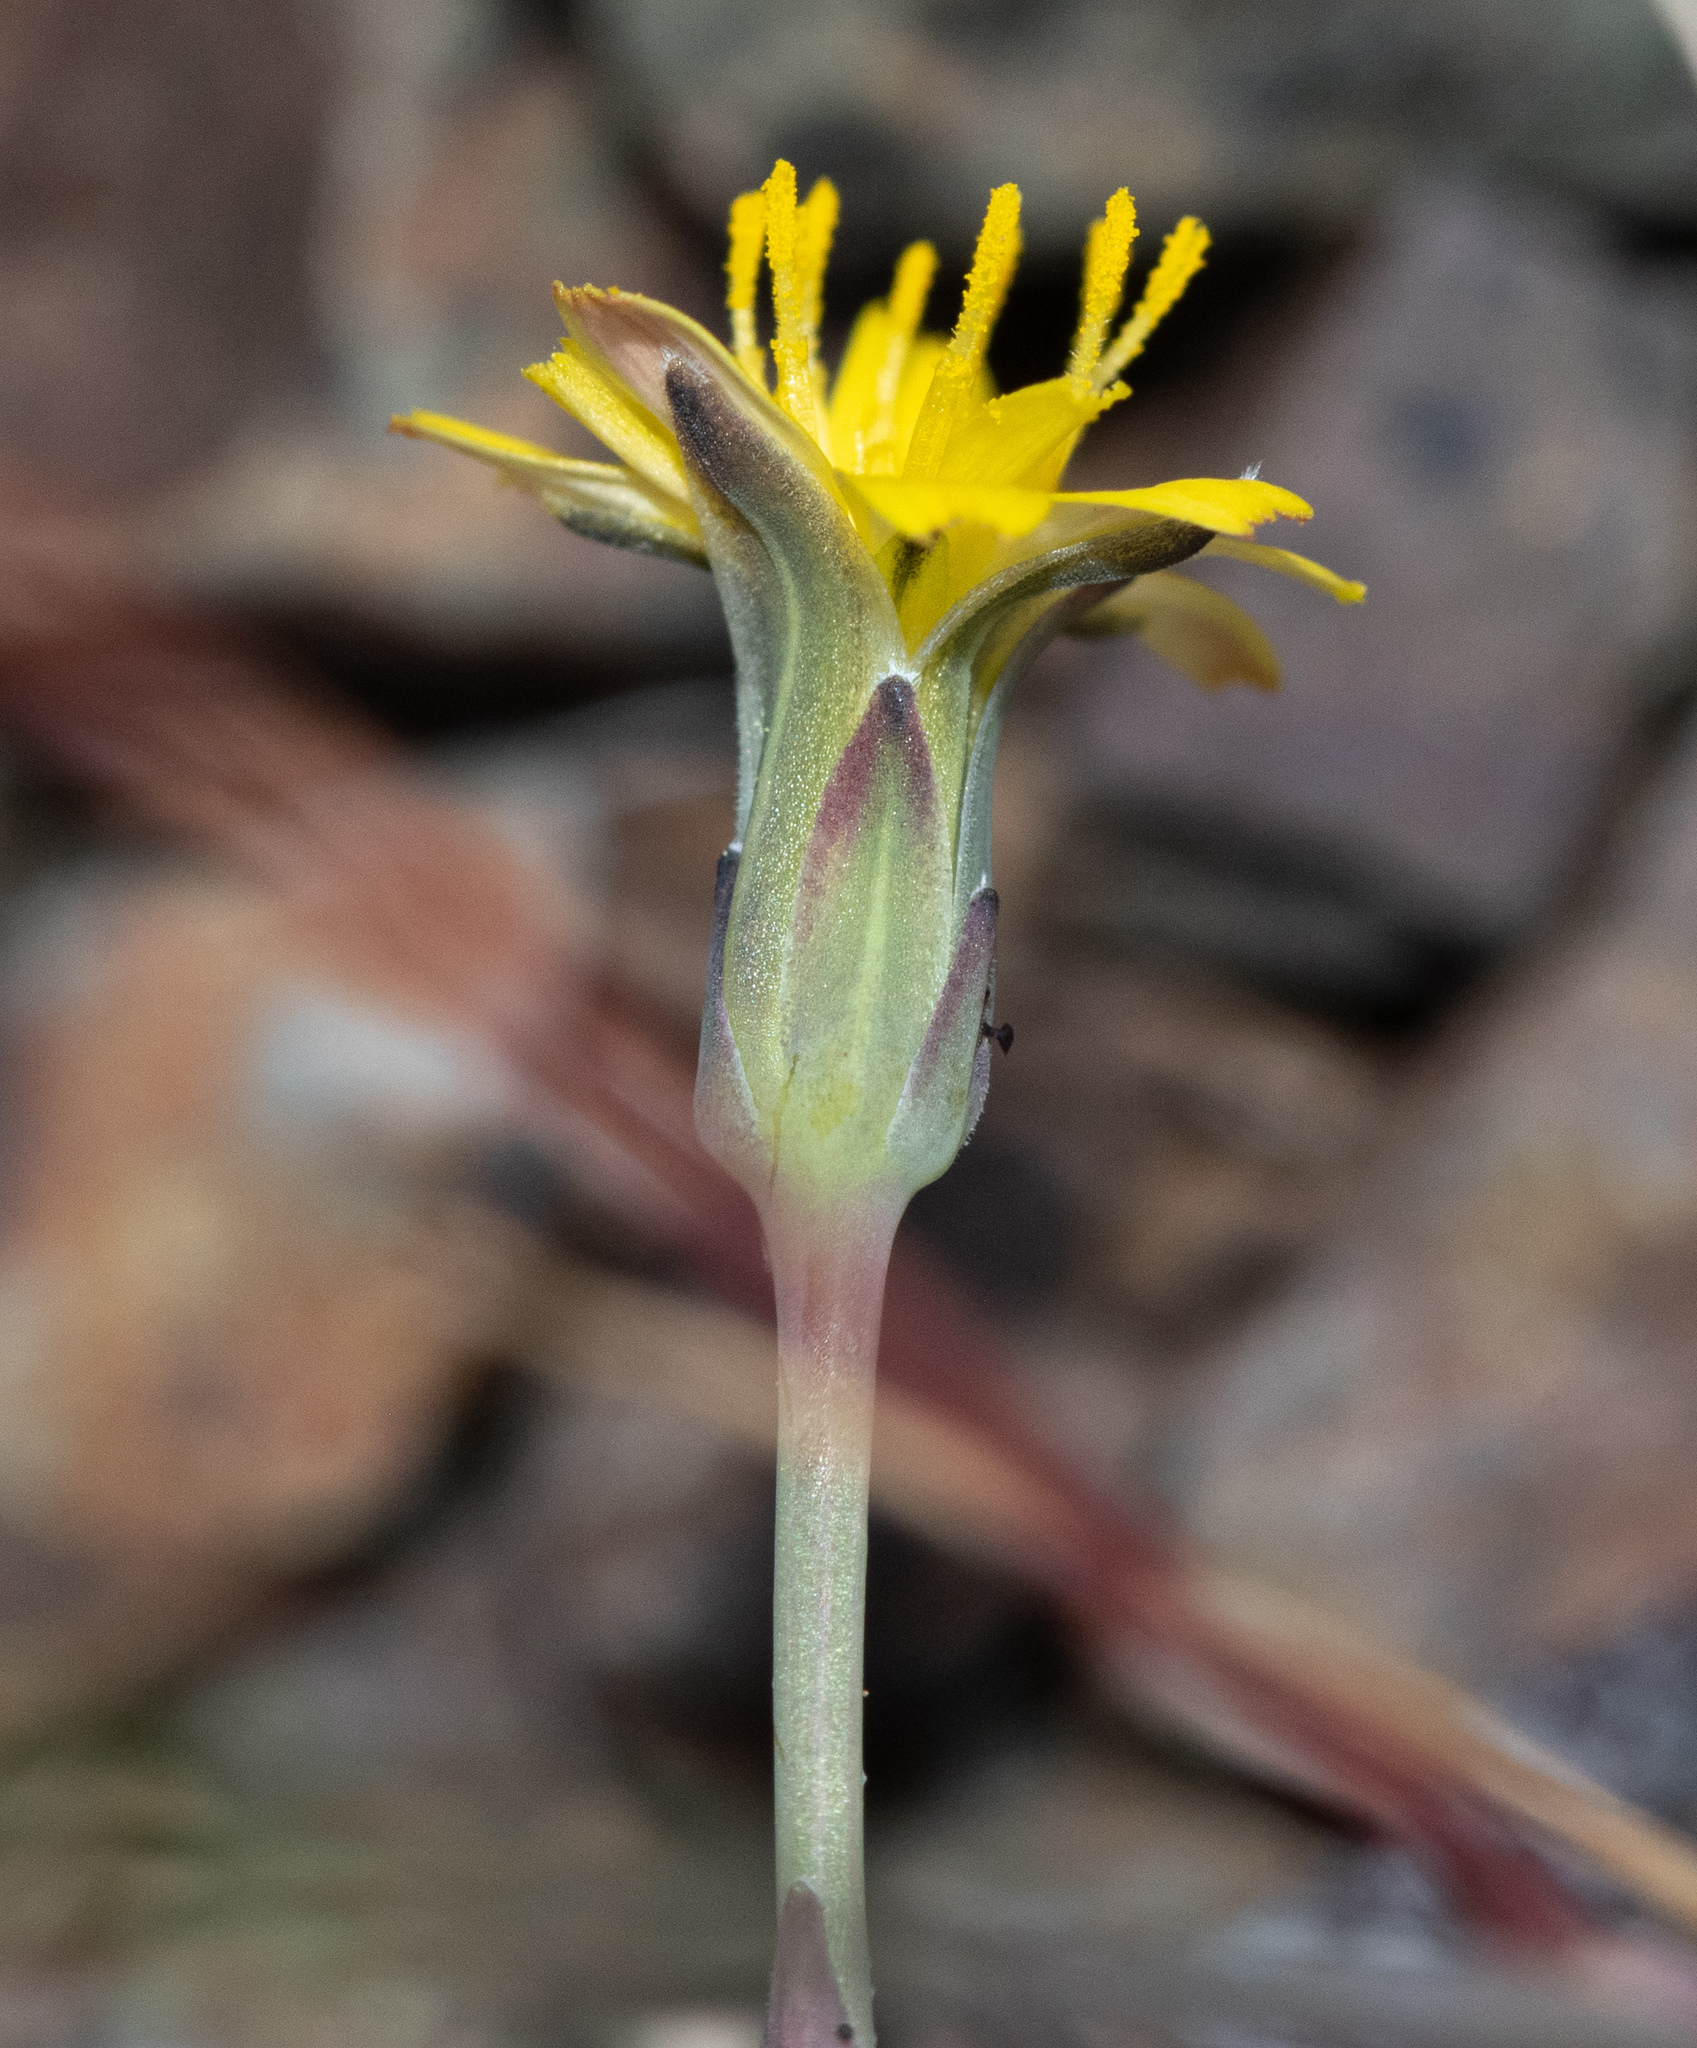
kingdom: Plantae
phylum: Tracheophyta
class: Magnoliopsida
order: Asterales
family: Asteraceae
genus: Hypochaeris
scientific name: Hypochaeris glabra
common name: Smooth catsear
